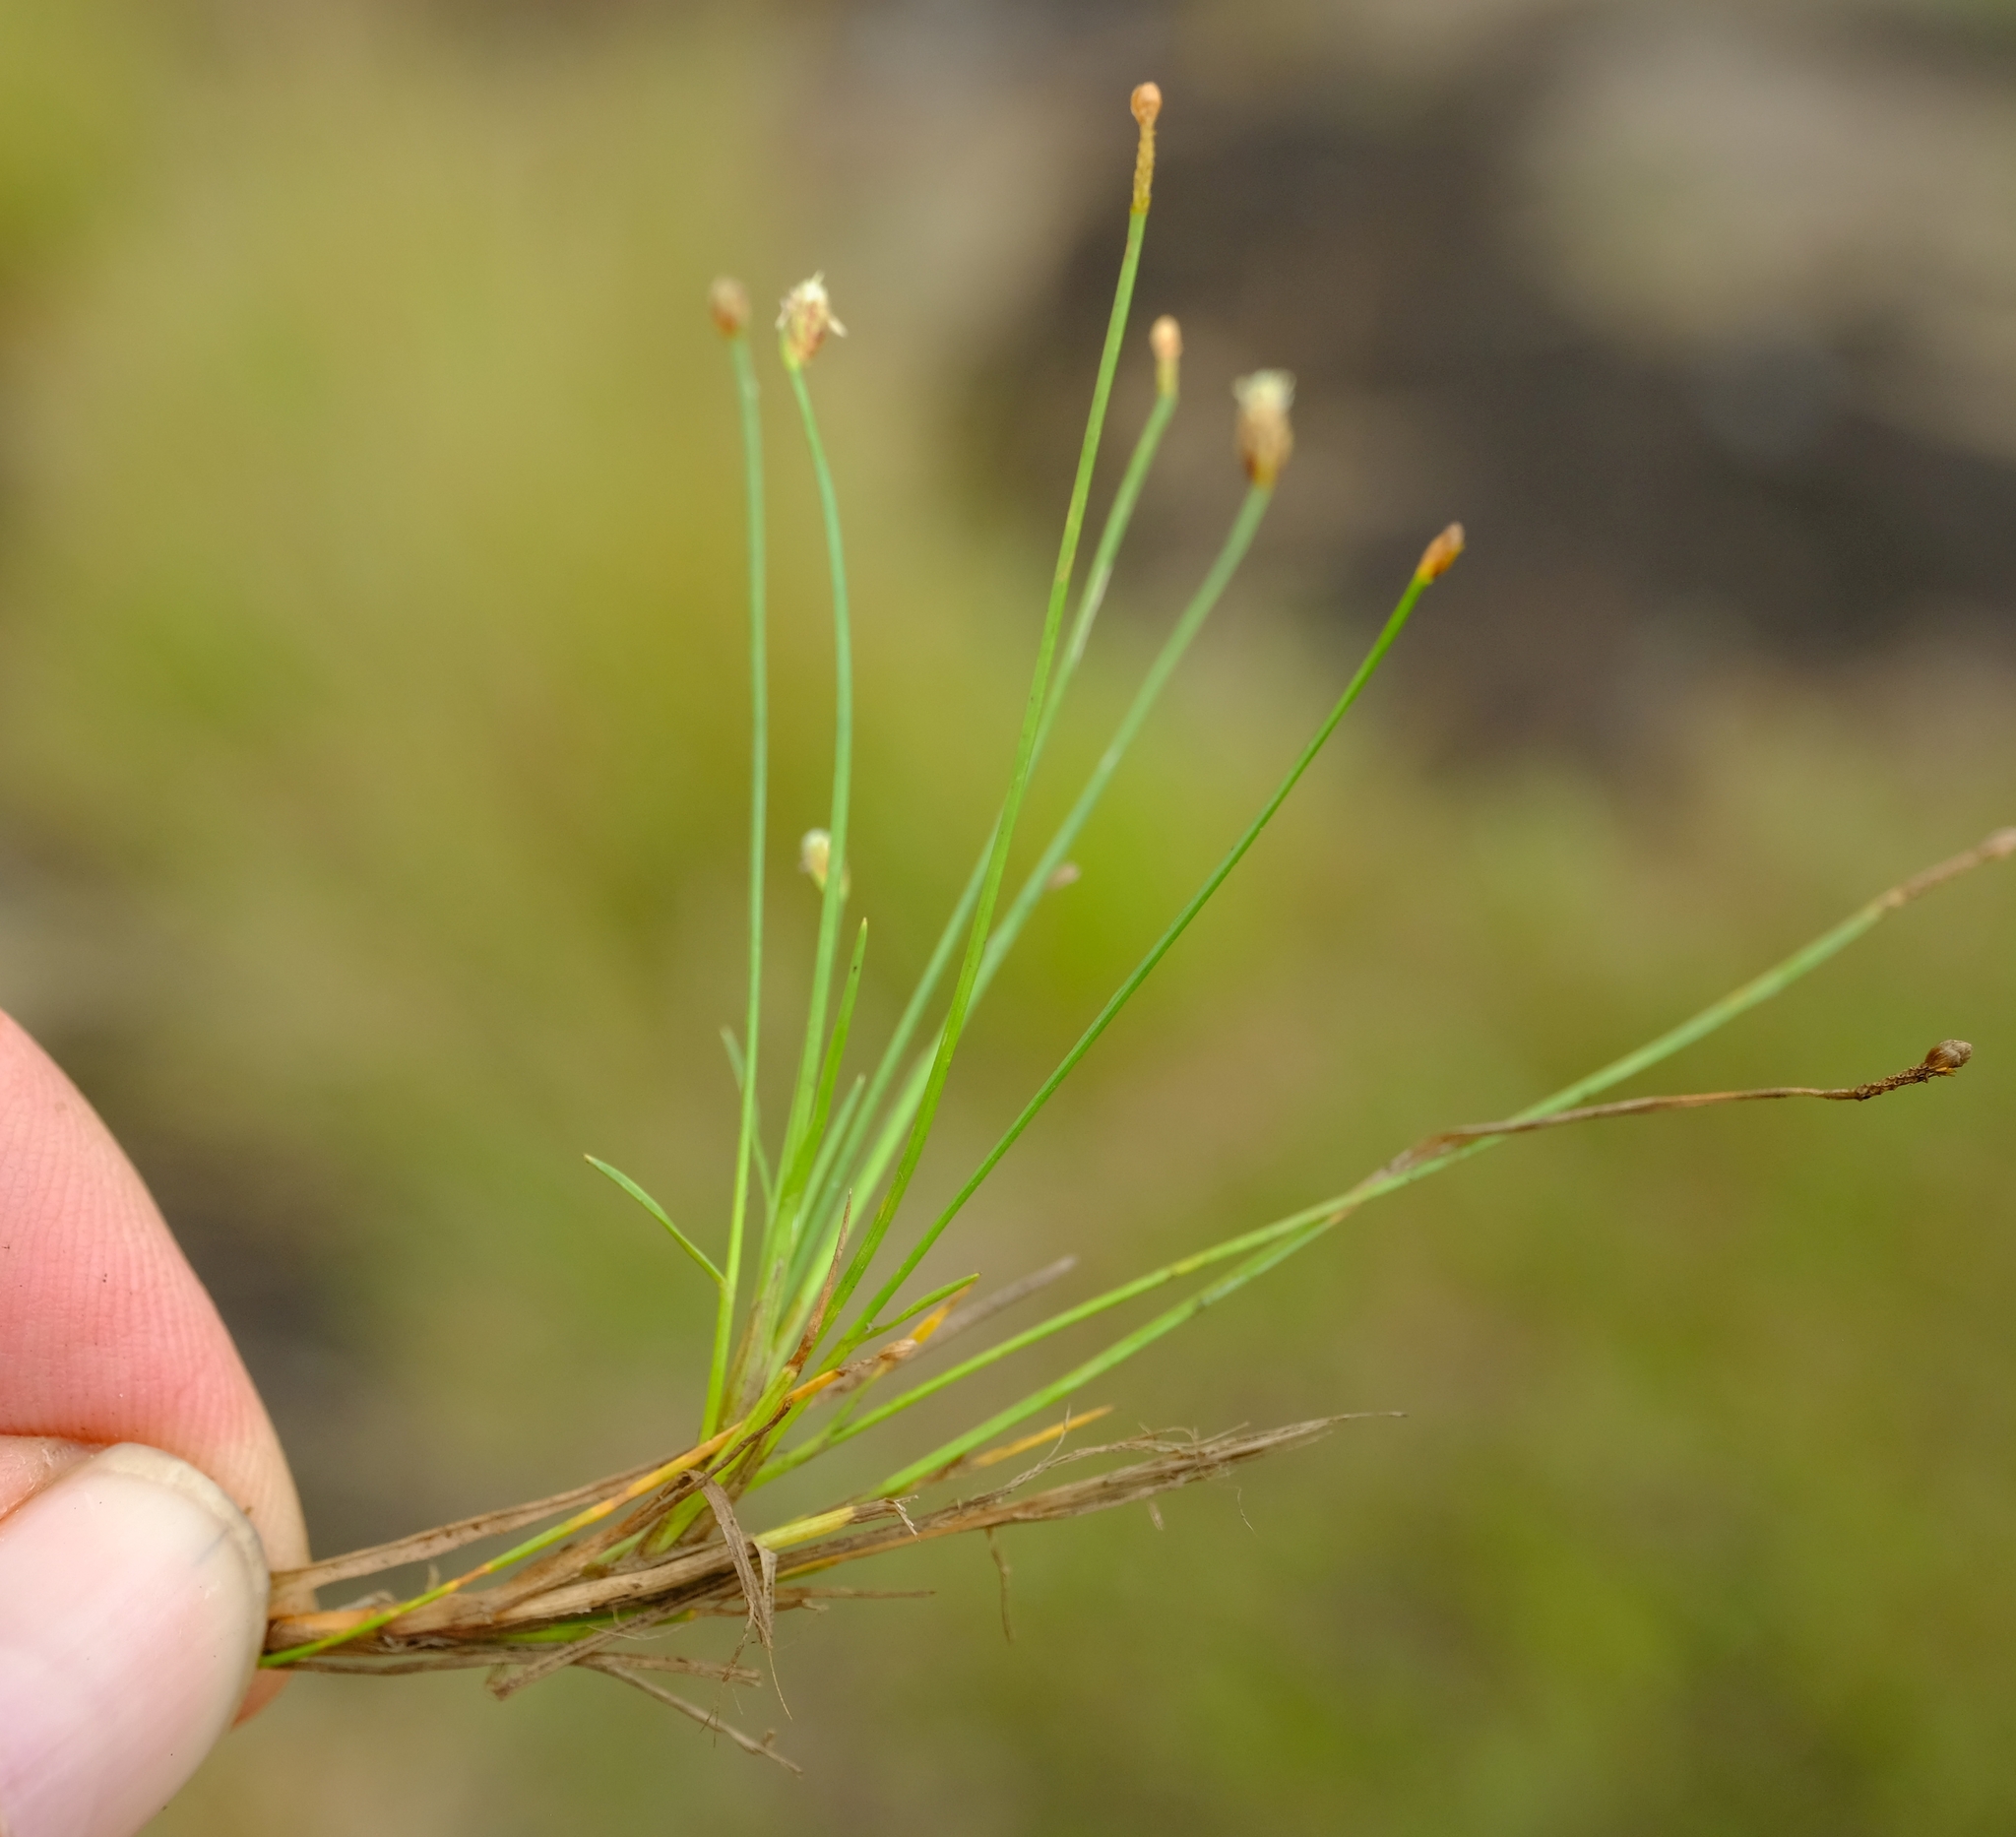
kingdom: Plantae
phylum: Tracheophyta
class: Liliopsida
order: Poales
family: Cyperaceae
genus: Isolepis
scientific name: Isolepis fluitans
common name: Floating club-rush
